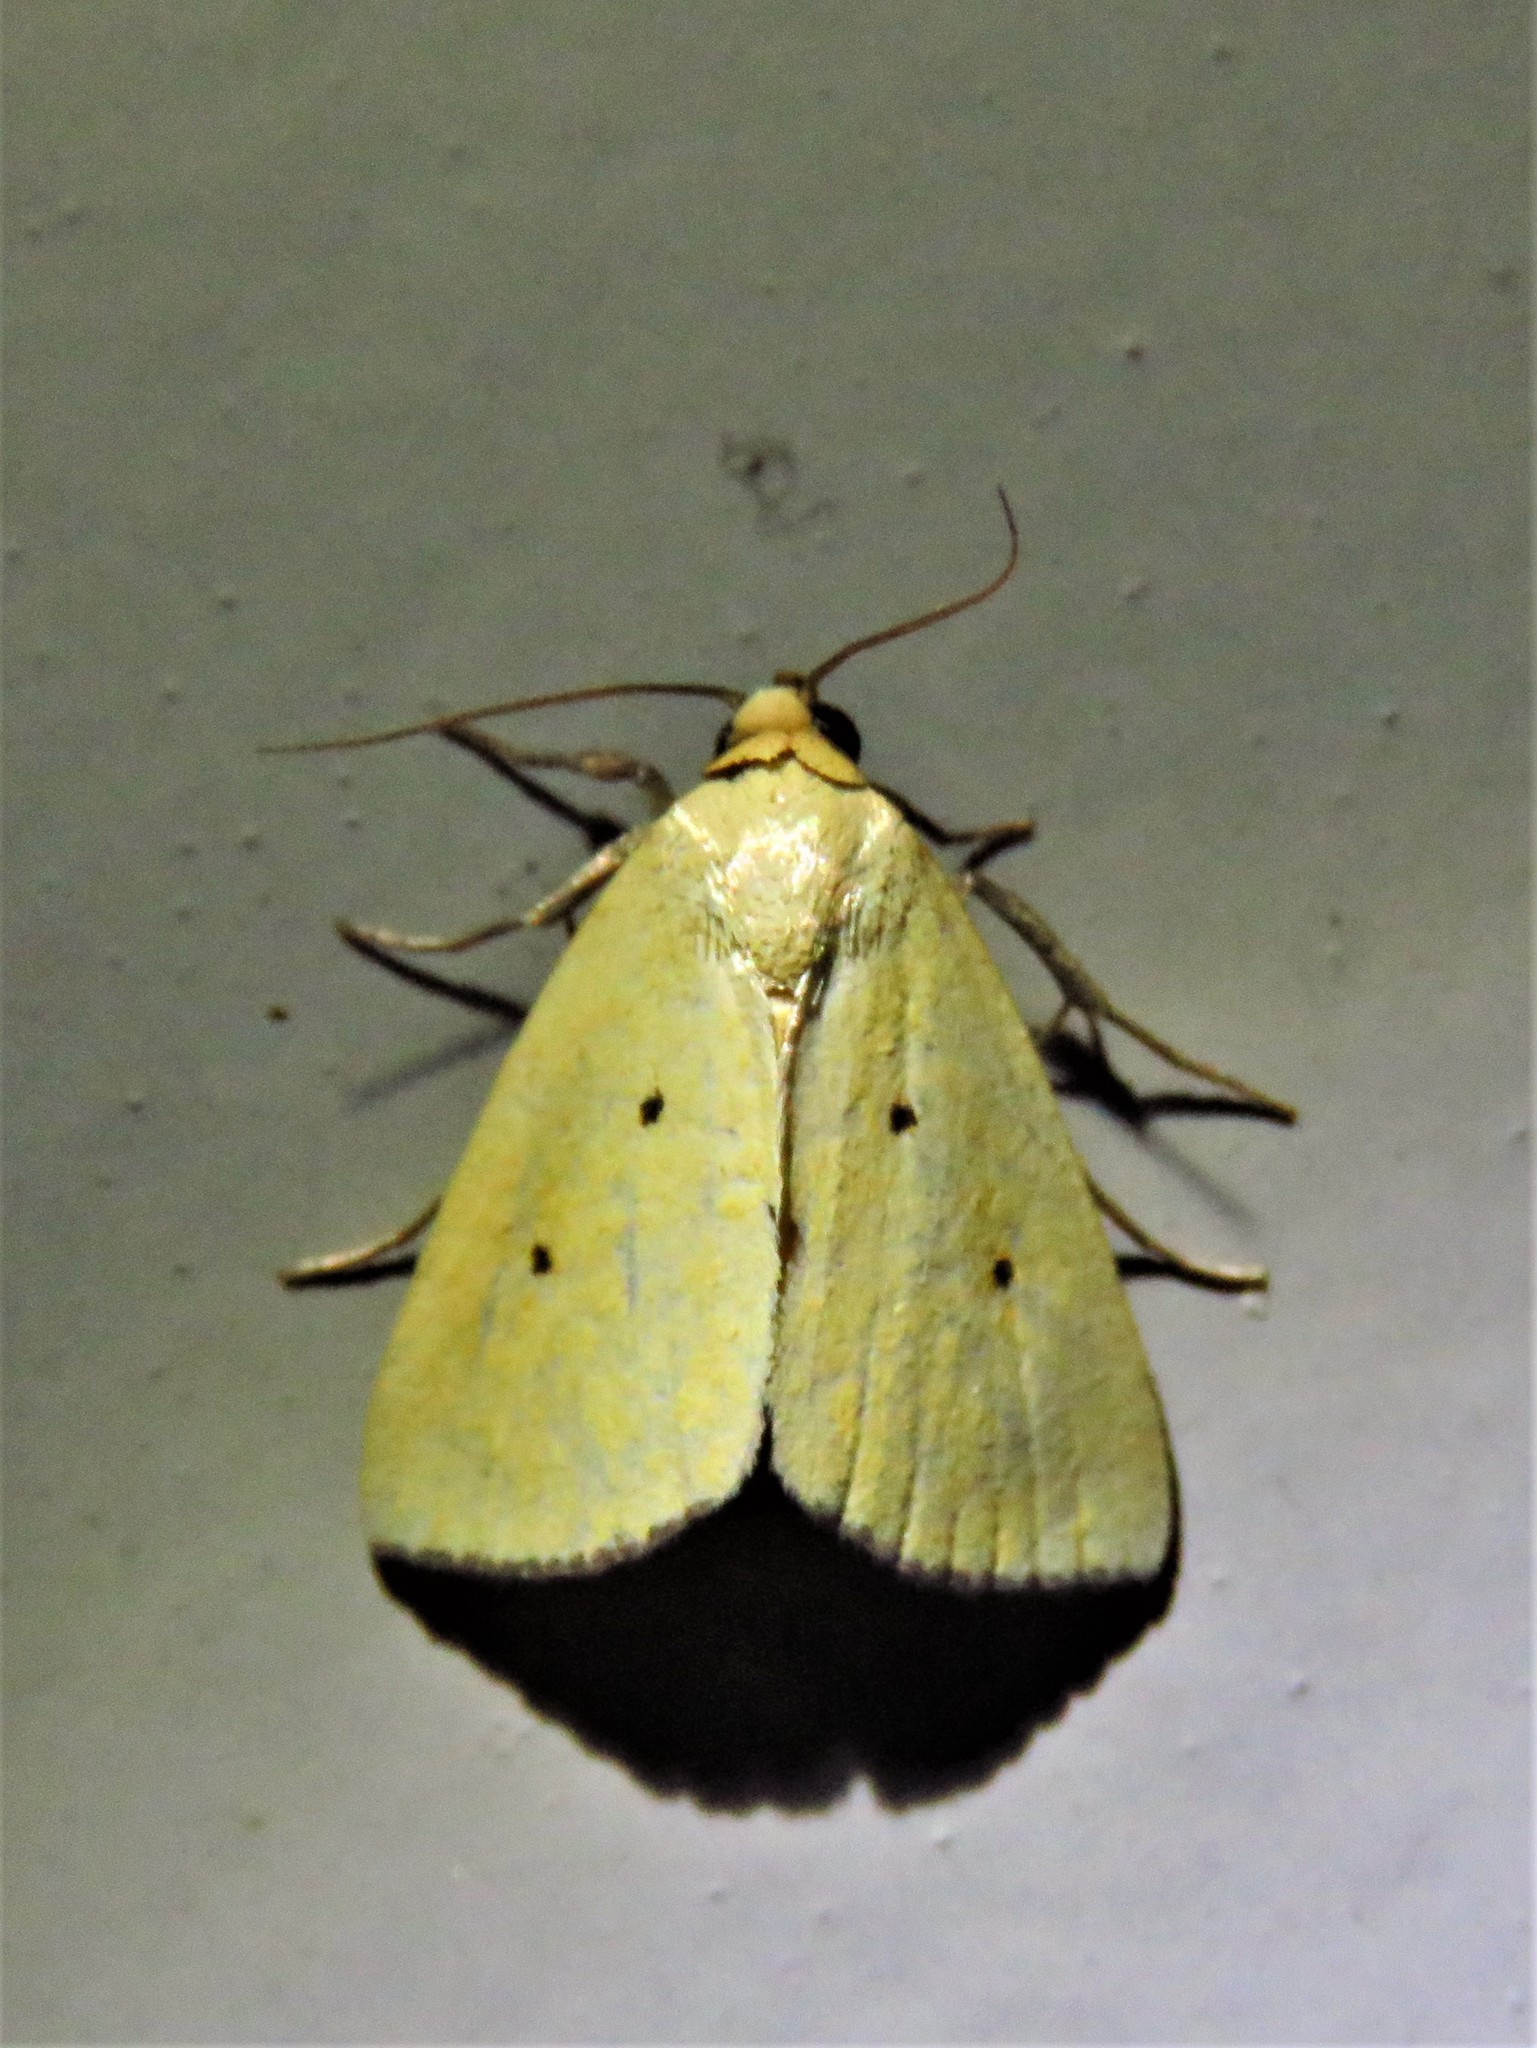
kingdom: Animalia
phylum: Arthropoda
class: Insecta
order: Lepidoptera
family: Noctuidae
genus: Marimatha
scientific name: Marimatha nigrofimbria
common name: Black-bordered lemon moth
